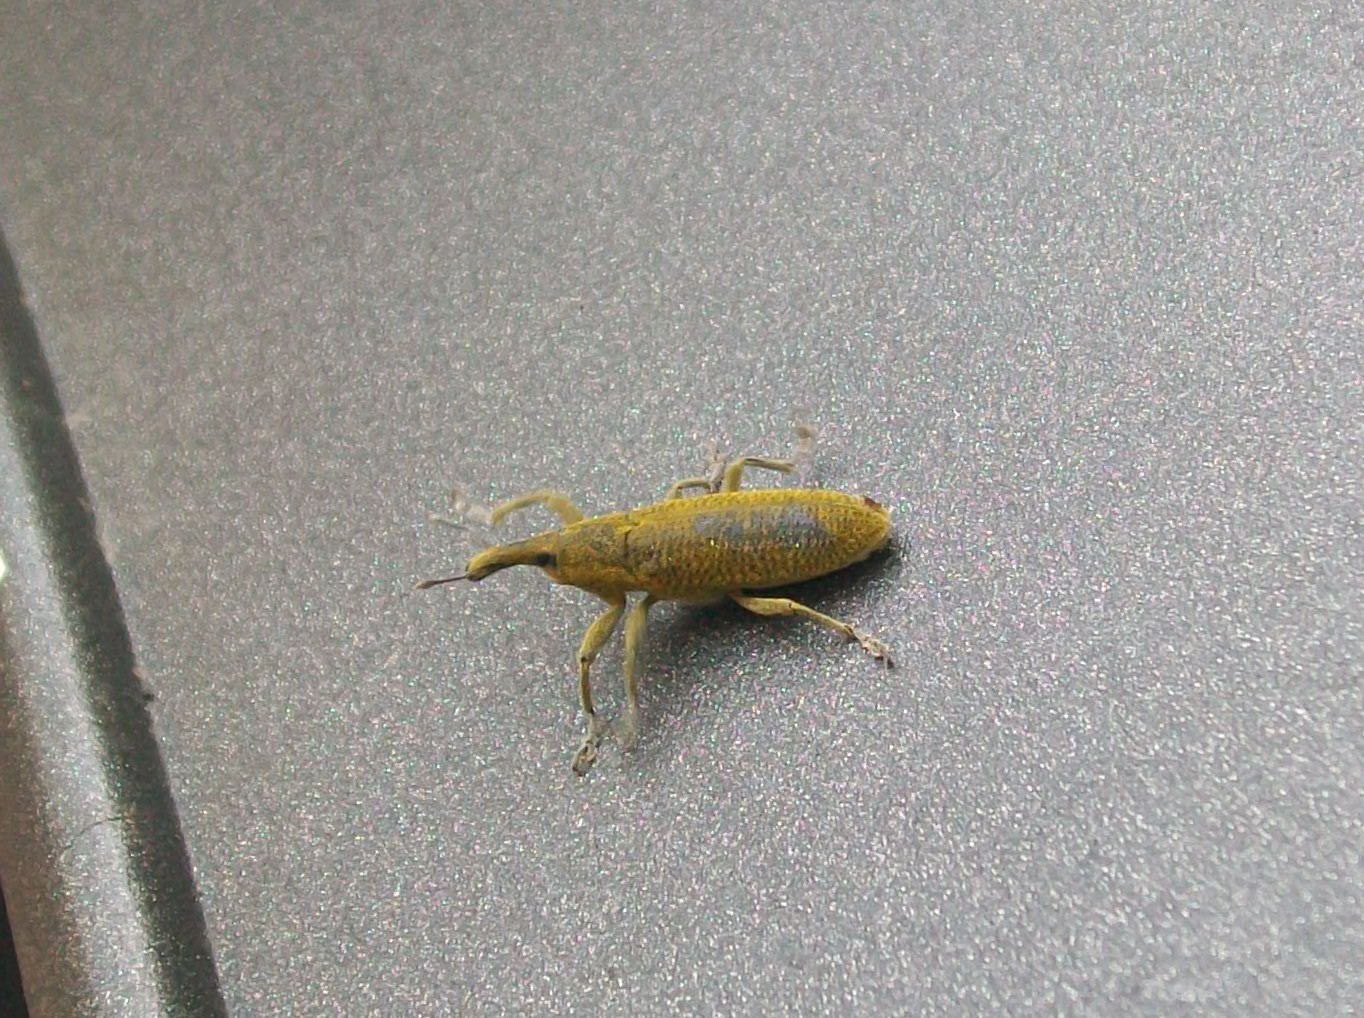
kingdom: Animalia
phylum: Arthropoda
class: Insecta
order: Coleoptera
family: Curculionidae
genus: Lixus
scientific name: Lixus pulverulentus
